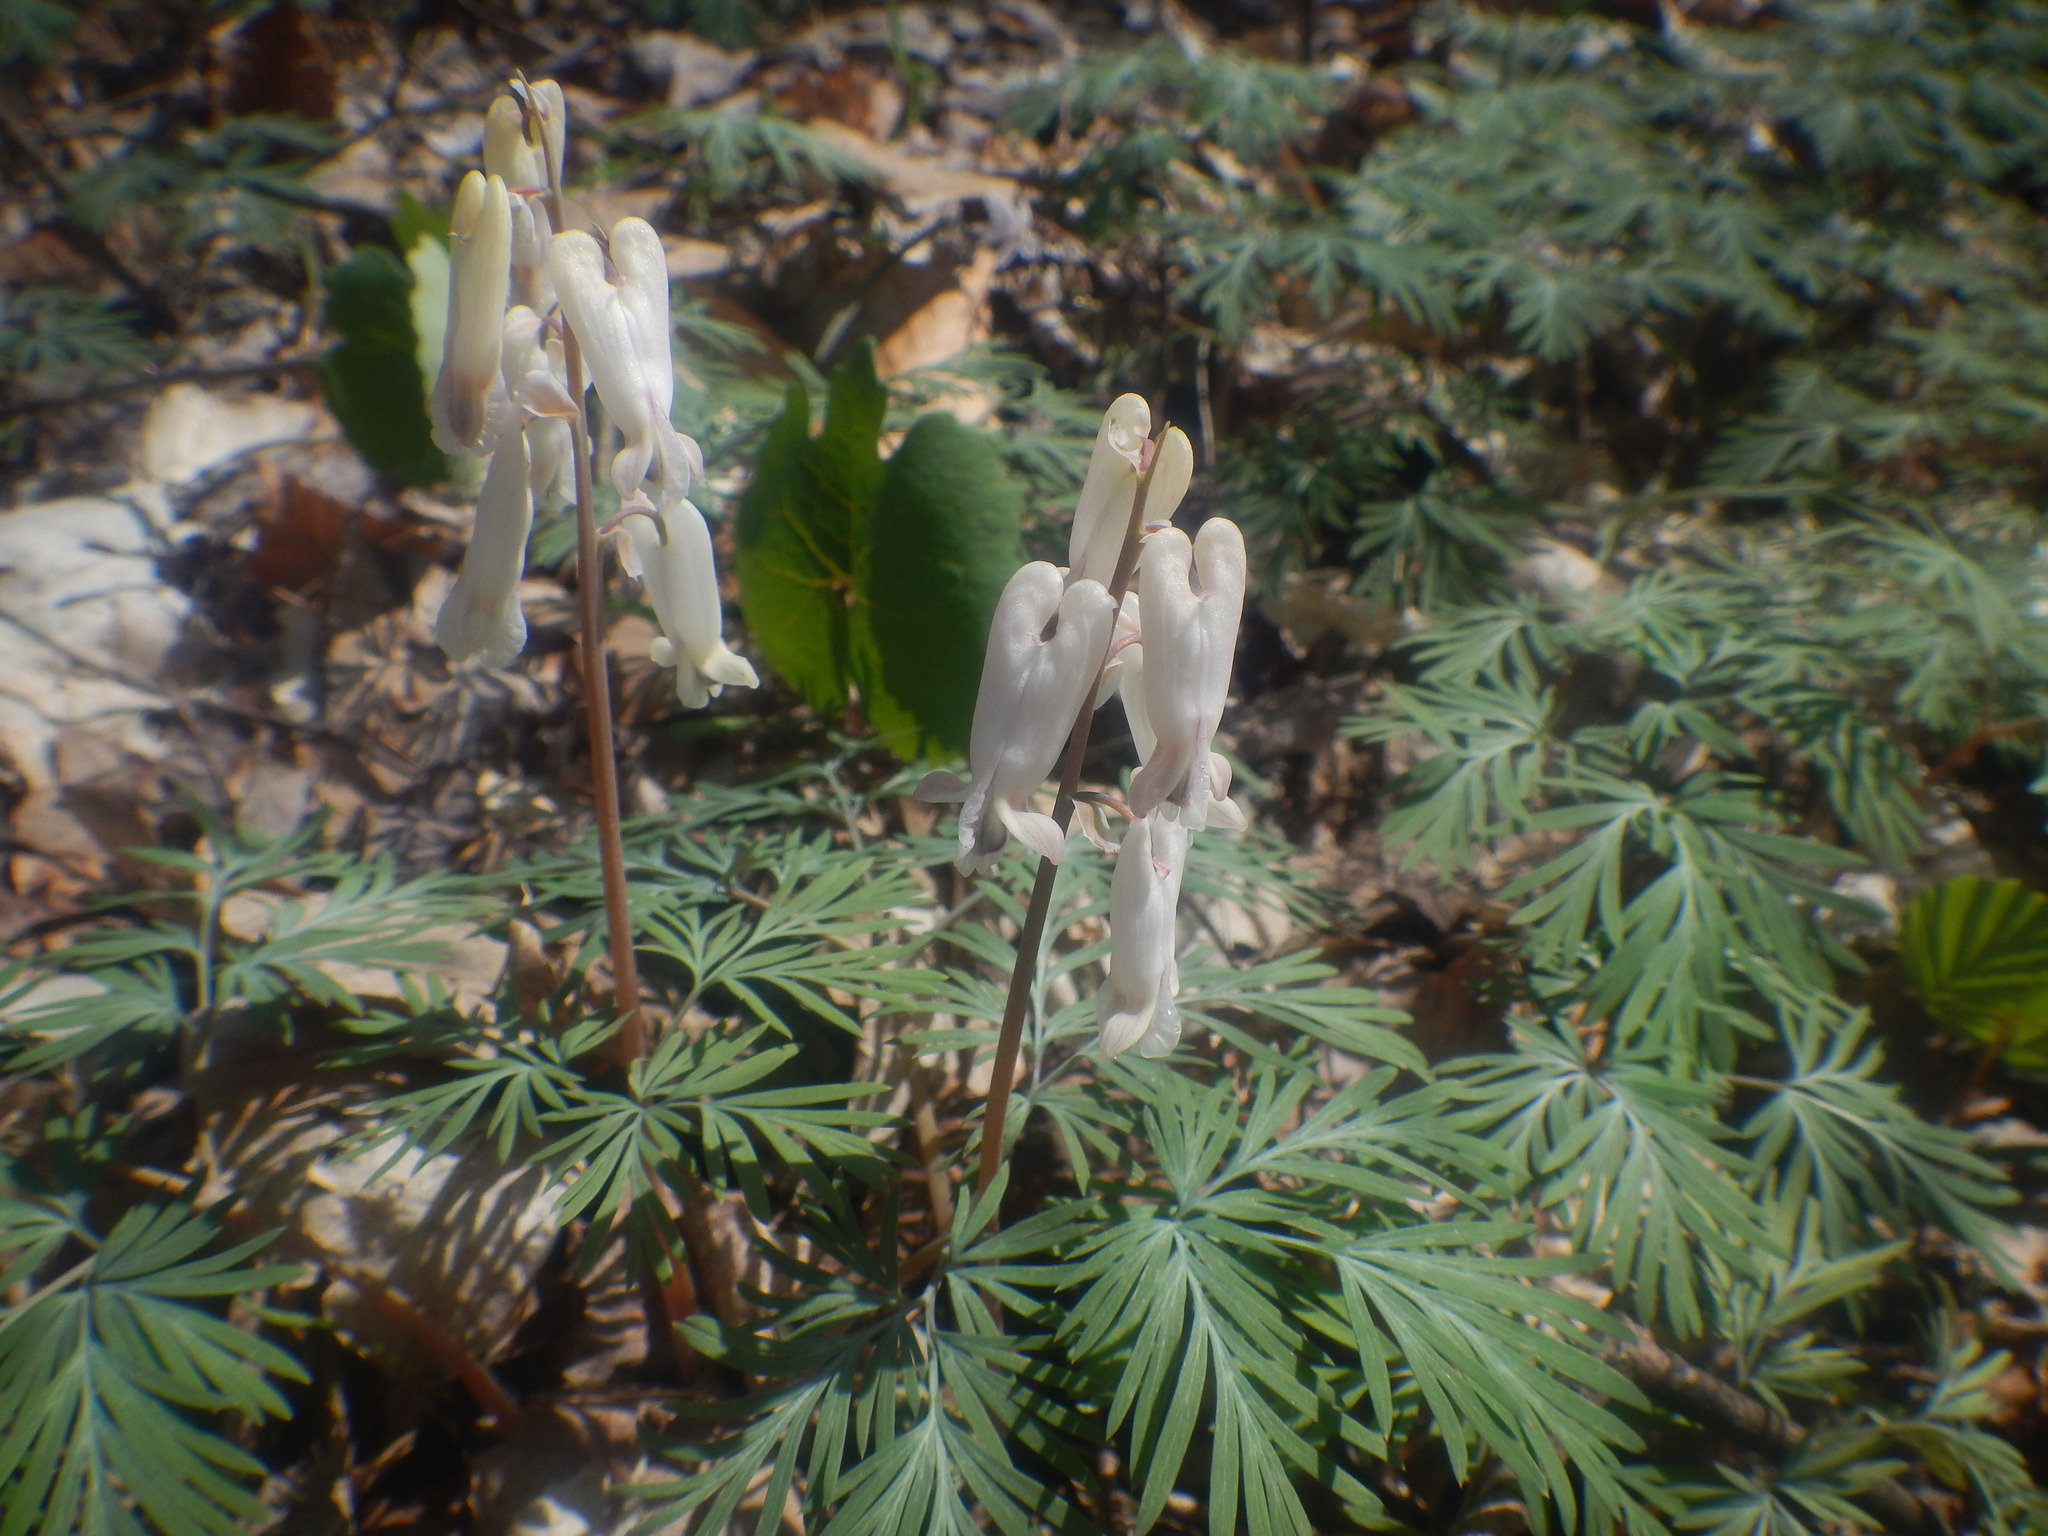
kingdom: Plantae
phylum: Tracheophyta
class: Magnoliopsida
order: Ranunculales
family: Papaveraceae
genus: Dicentra
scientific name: Dicentra canadensis
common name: Squirrel-corn
